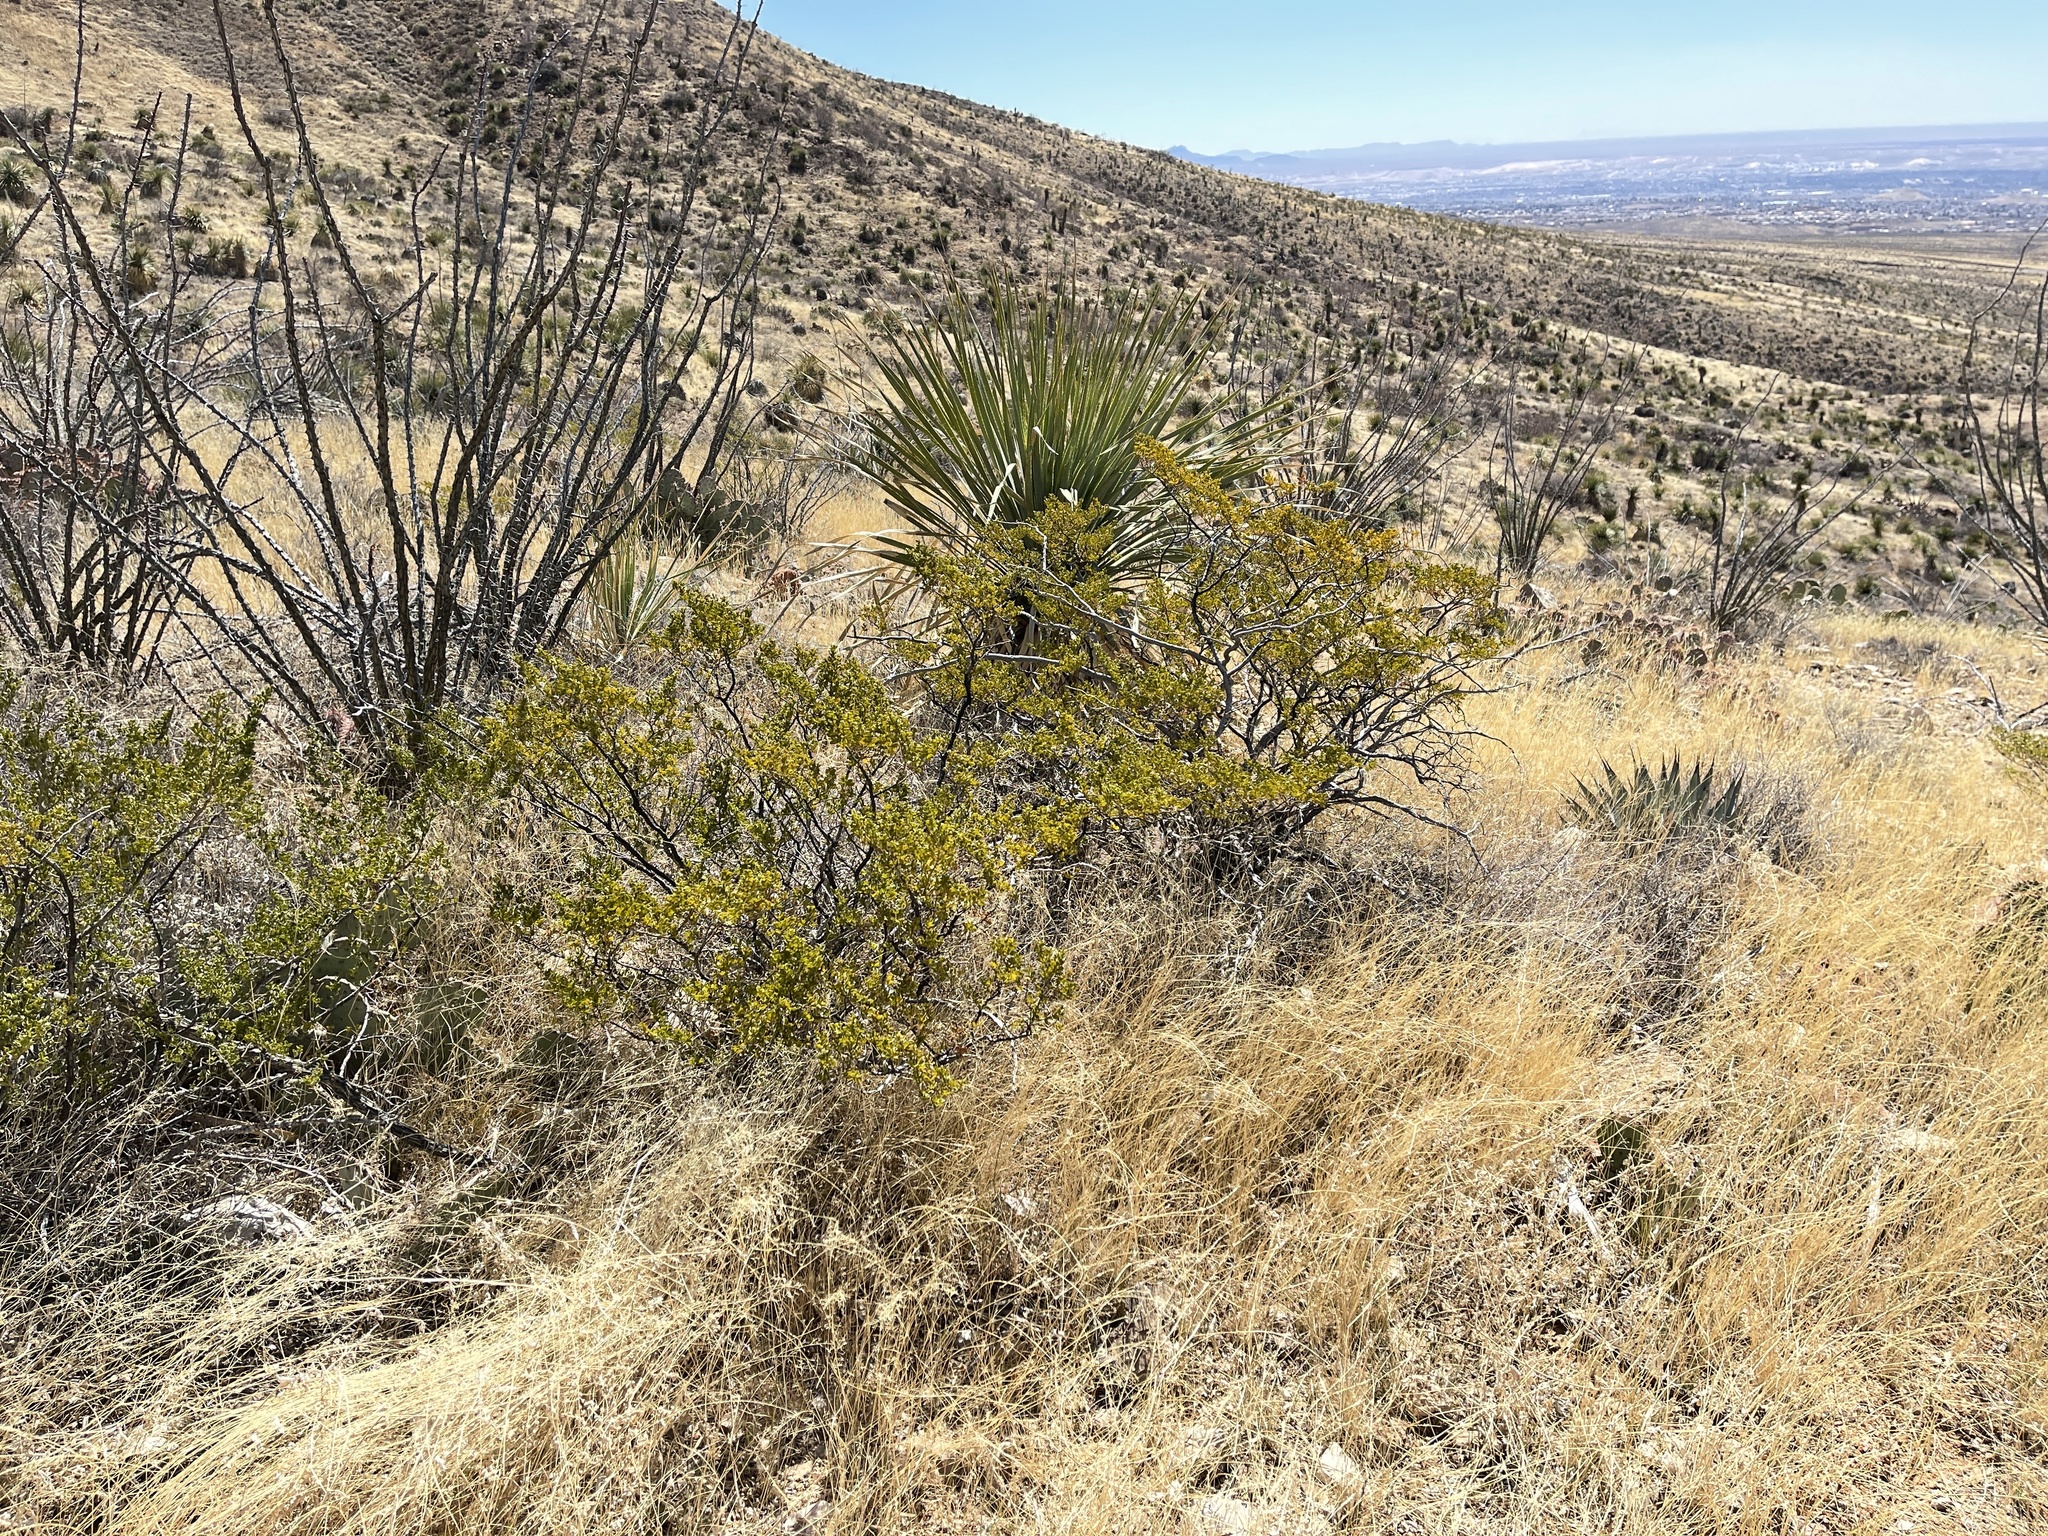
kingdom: Plantae
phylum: Tracheophyta
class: Magnoliopsida
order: Zygophyllales
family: Zygophyllaceae
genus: Larrea
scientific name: Larrea tridentata
